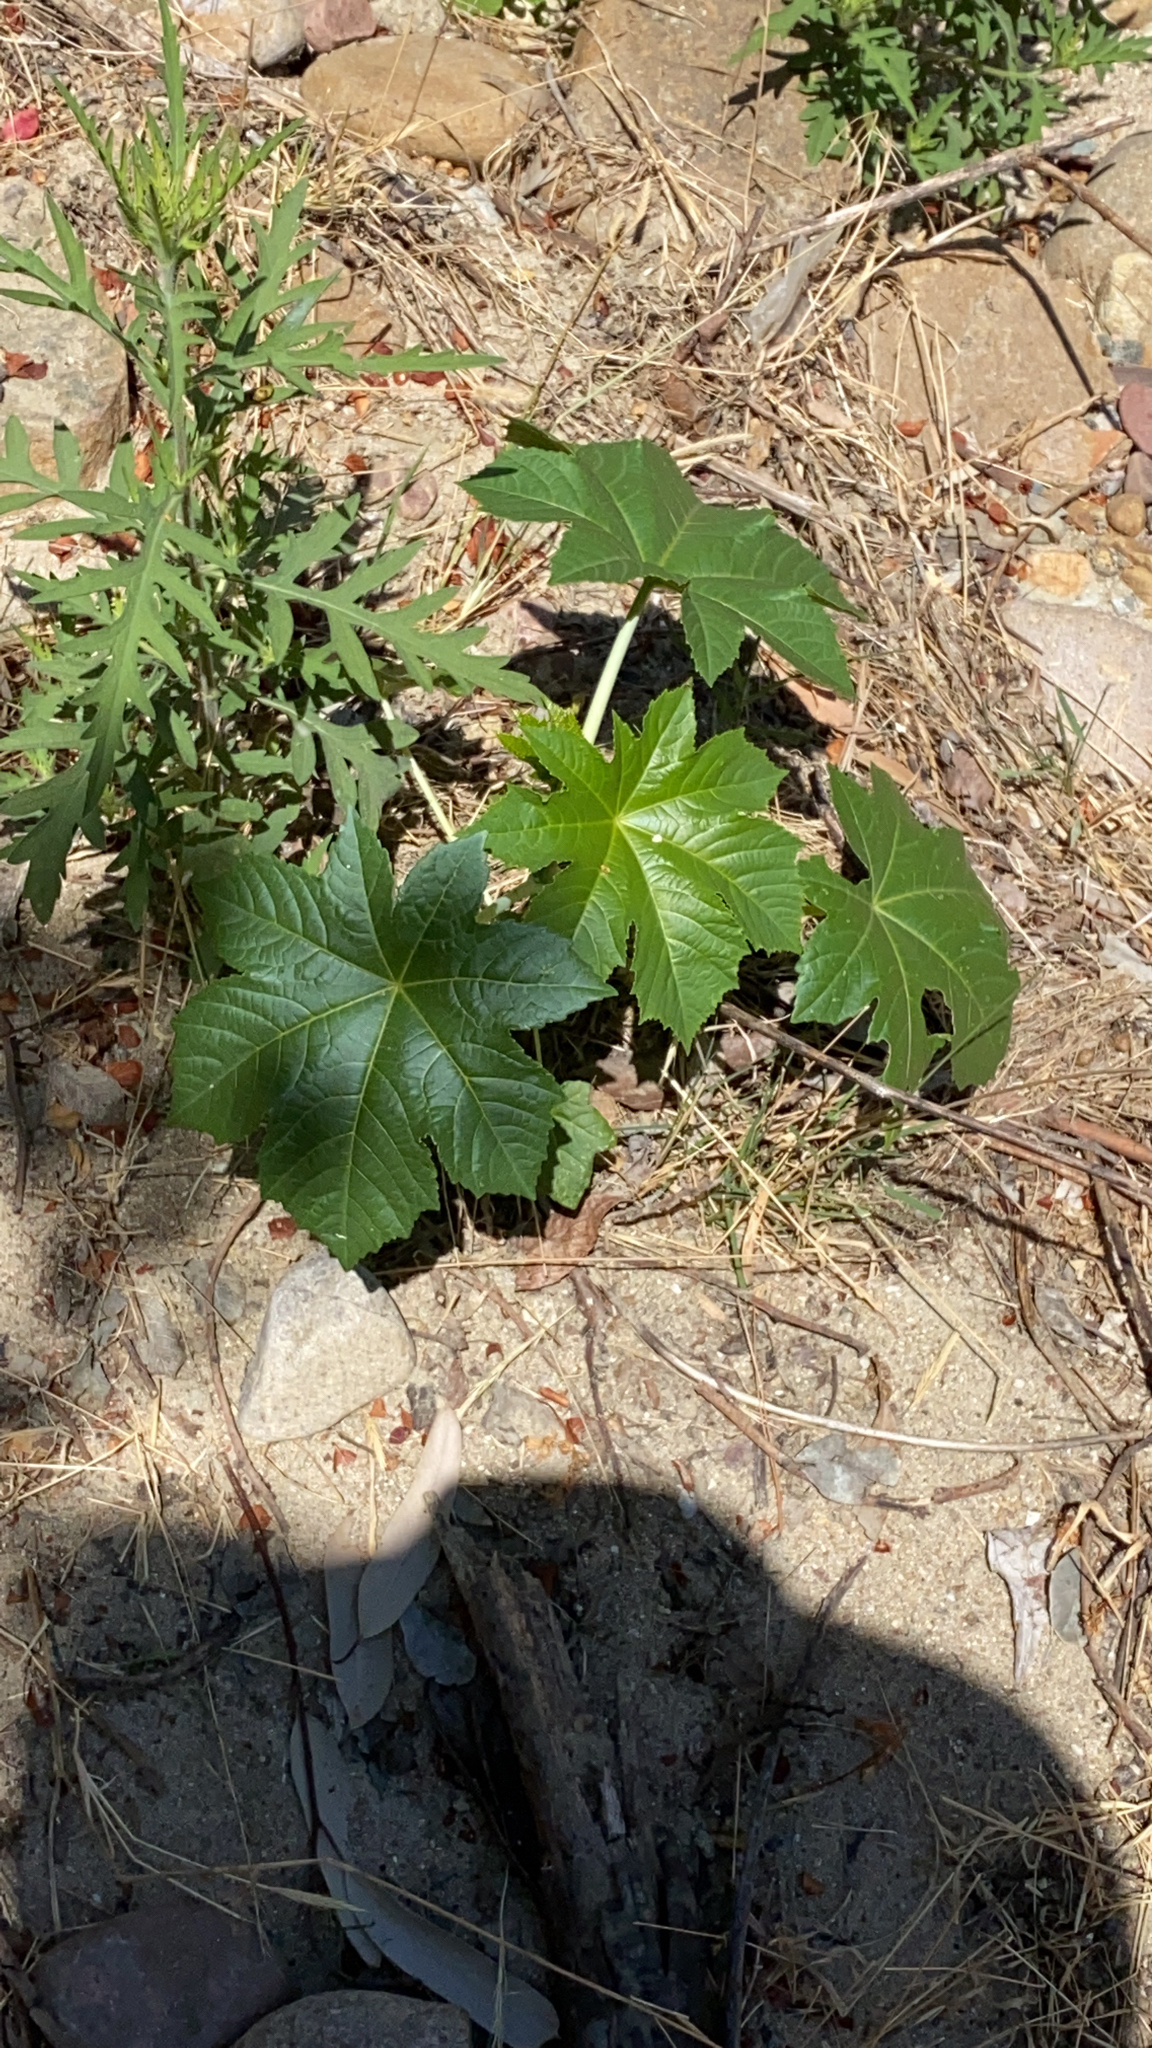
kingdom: Plantae
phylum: Tracheophyta
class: Magnoliopsida
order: Malpighiales
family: Euphorbiaceae
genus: Ricinus
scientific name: Ricinus communis
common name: Castor-oil-plant
